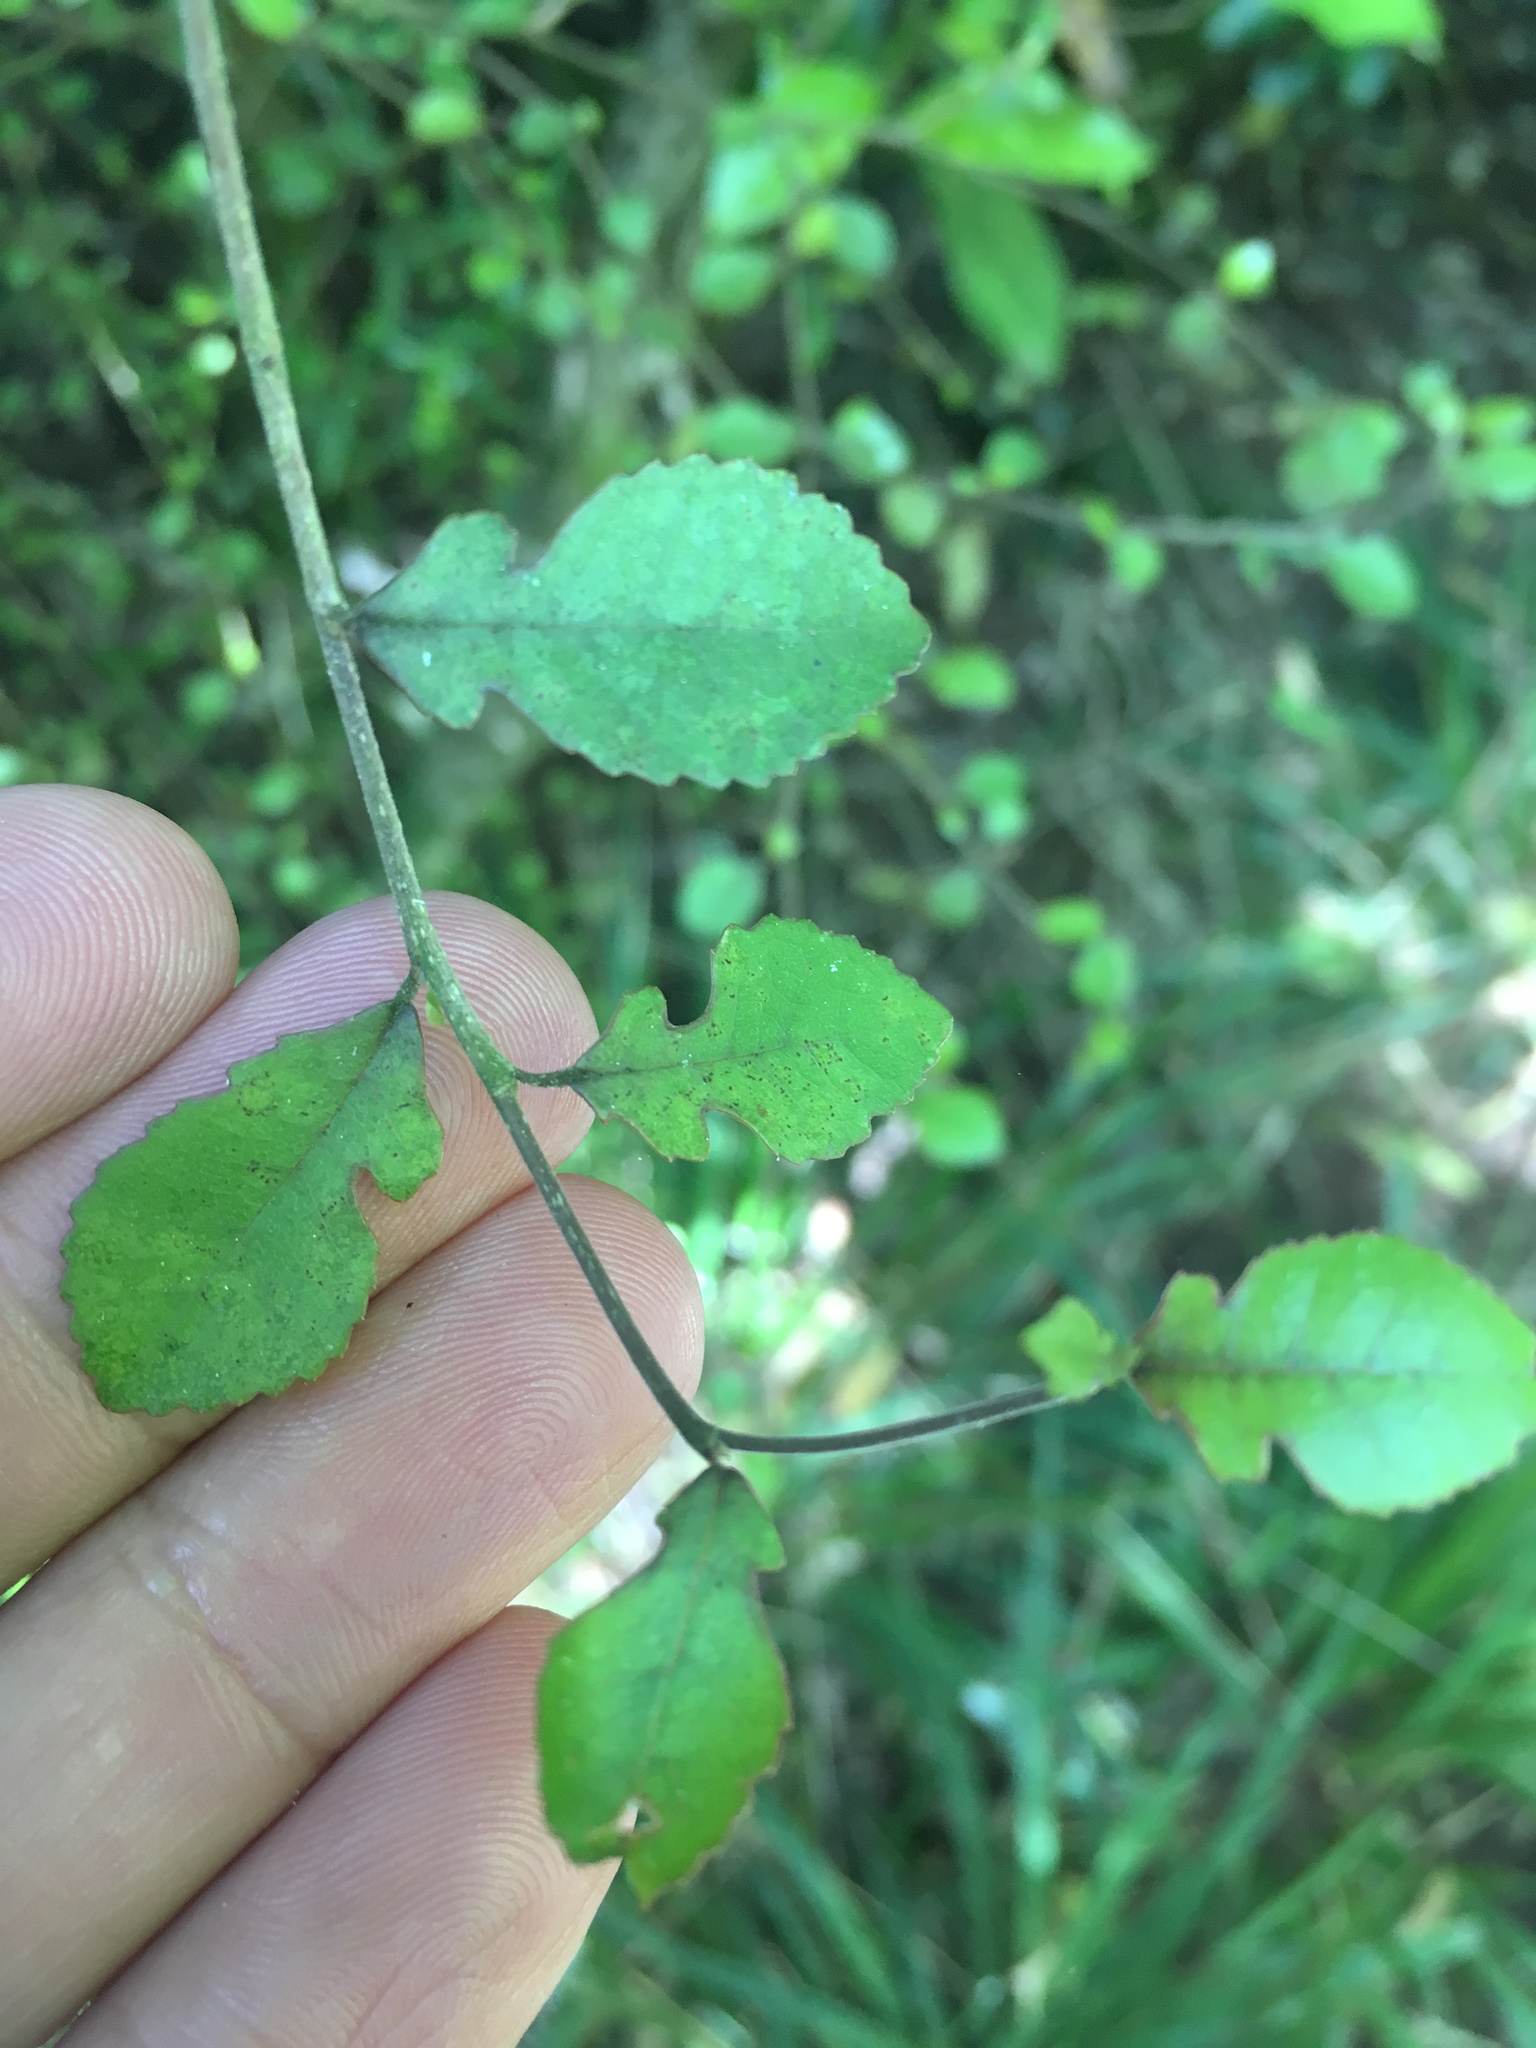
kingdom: Plantae
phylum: Tracheophyta
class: Magnoliopsida
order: Rosales
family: Moraceae
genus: Paratrophis
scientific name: Paratrophis microphylla
